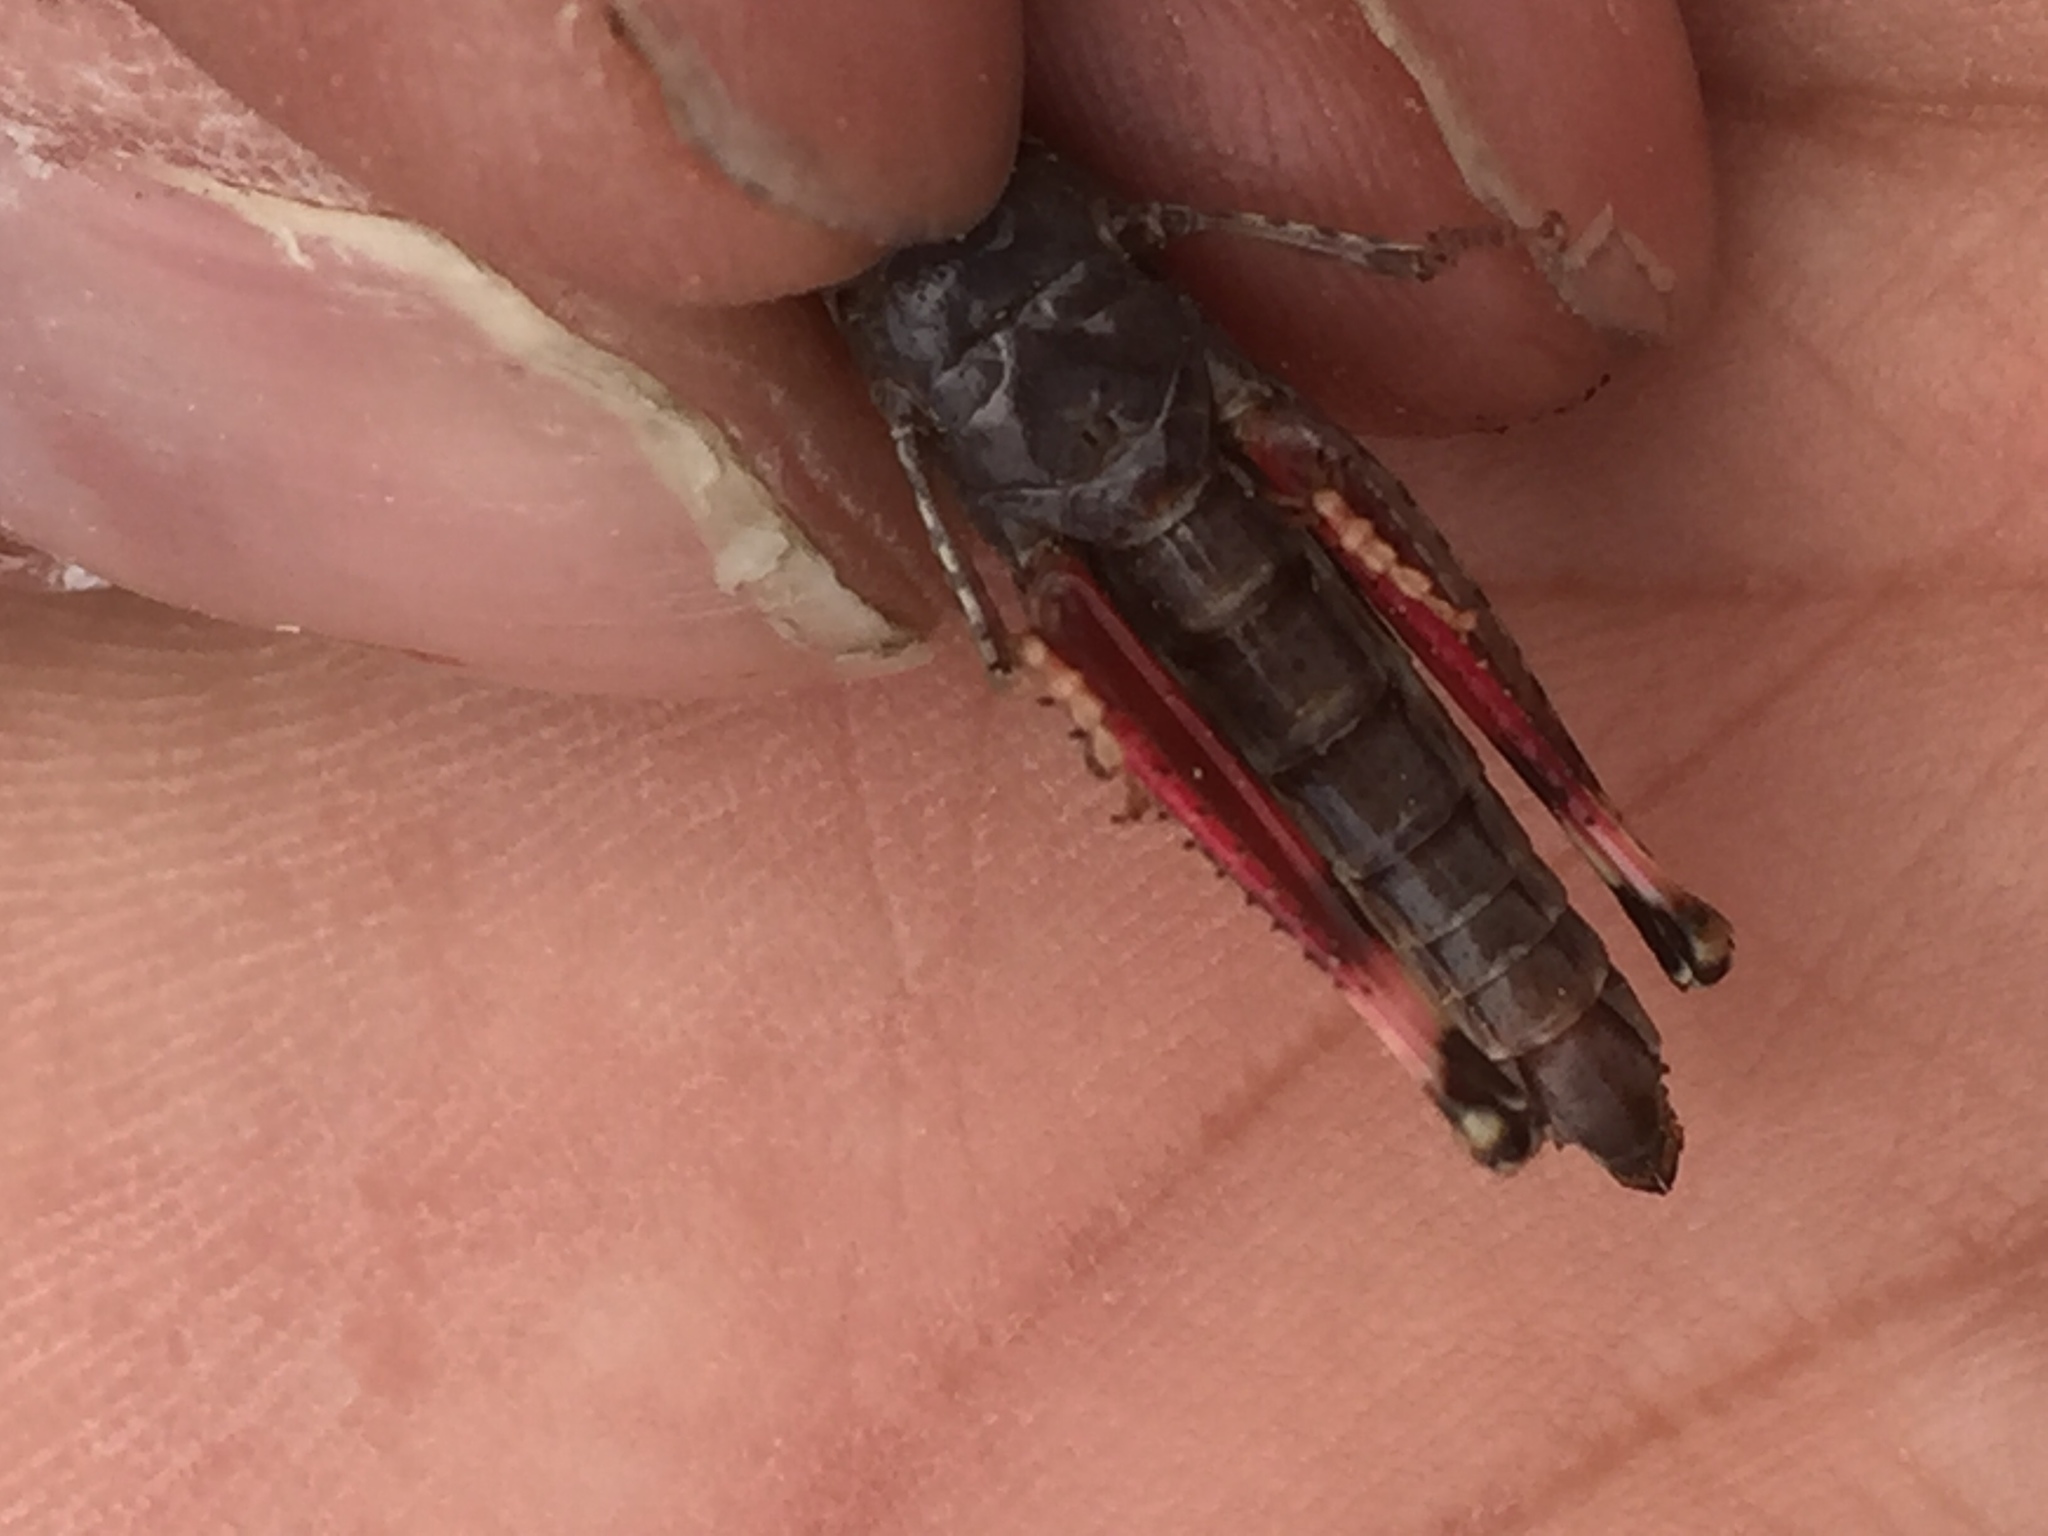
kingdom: Animalia
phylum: Arthropoda
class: Insecta
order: Orthoptera
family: Acrididae
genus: Aiolopus
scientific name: Aiolopus strepens
